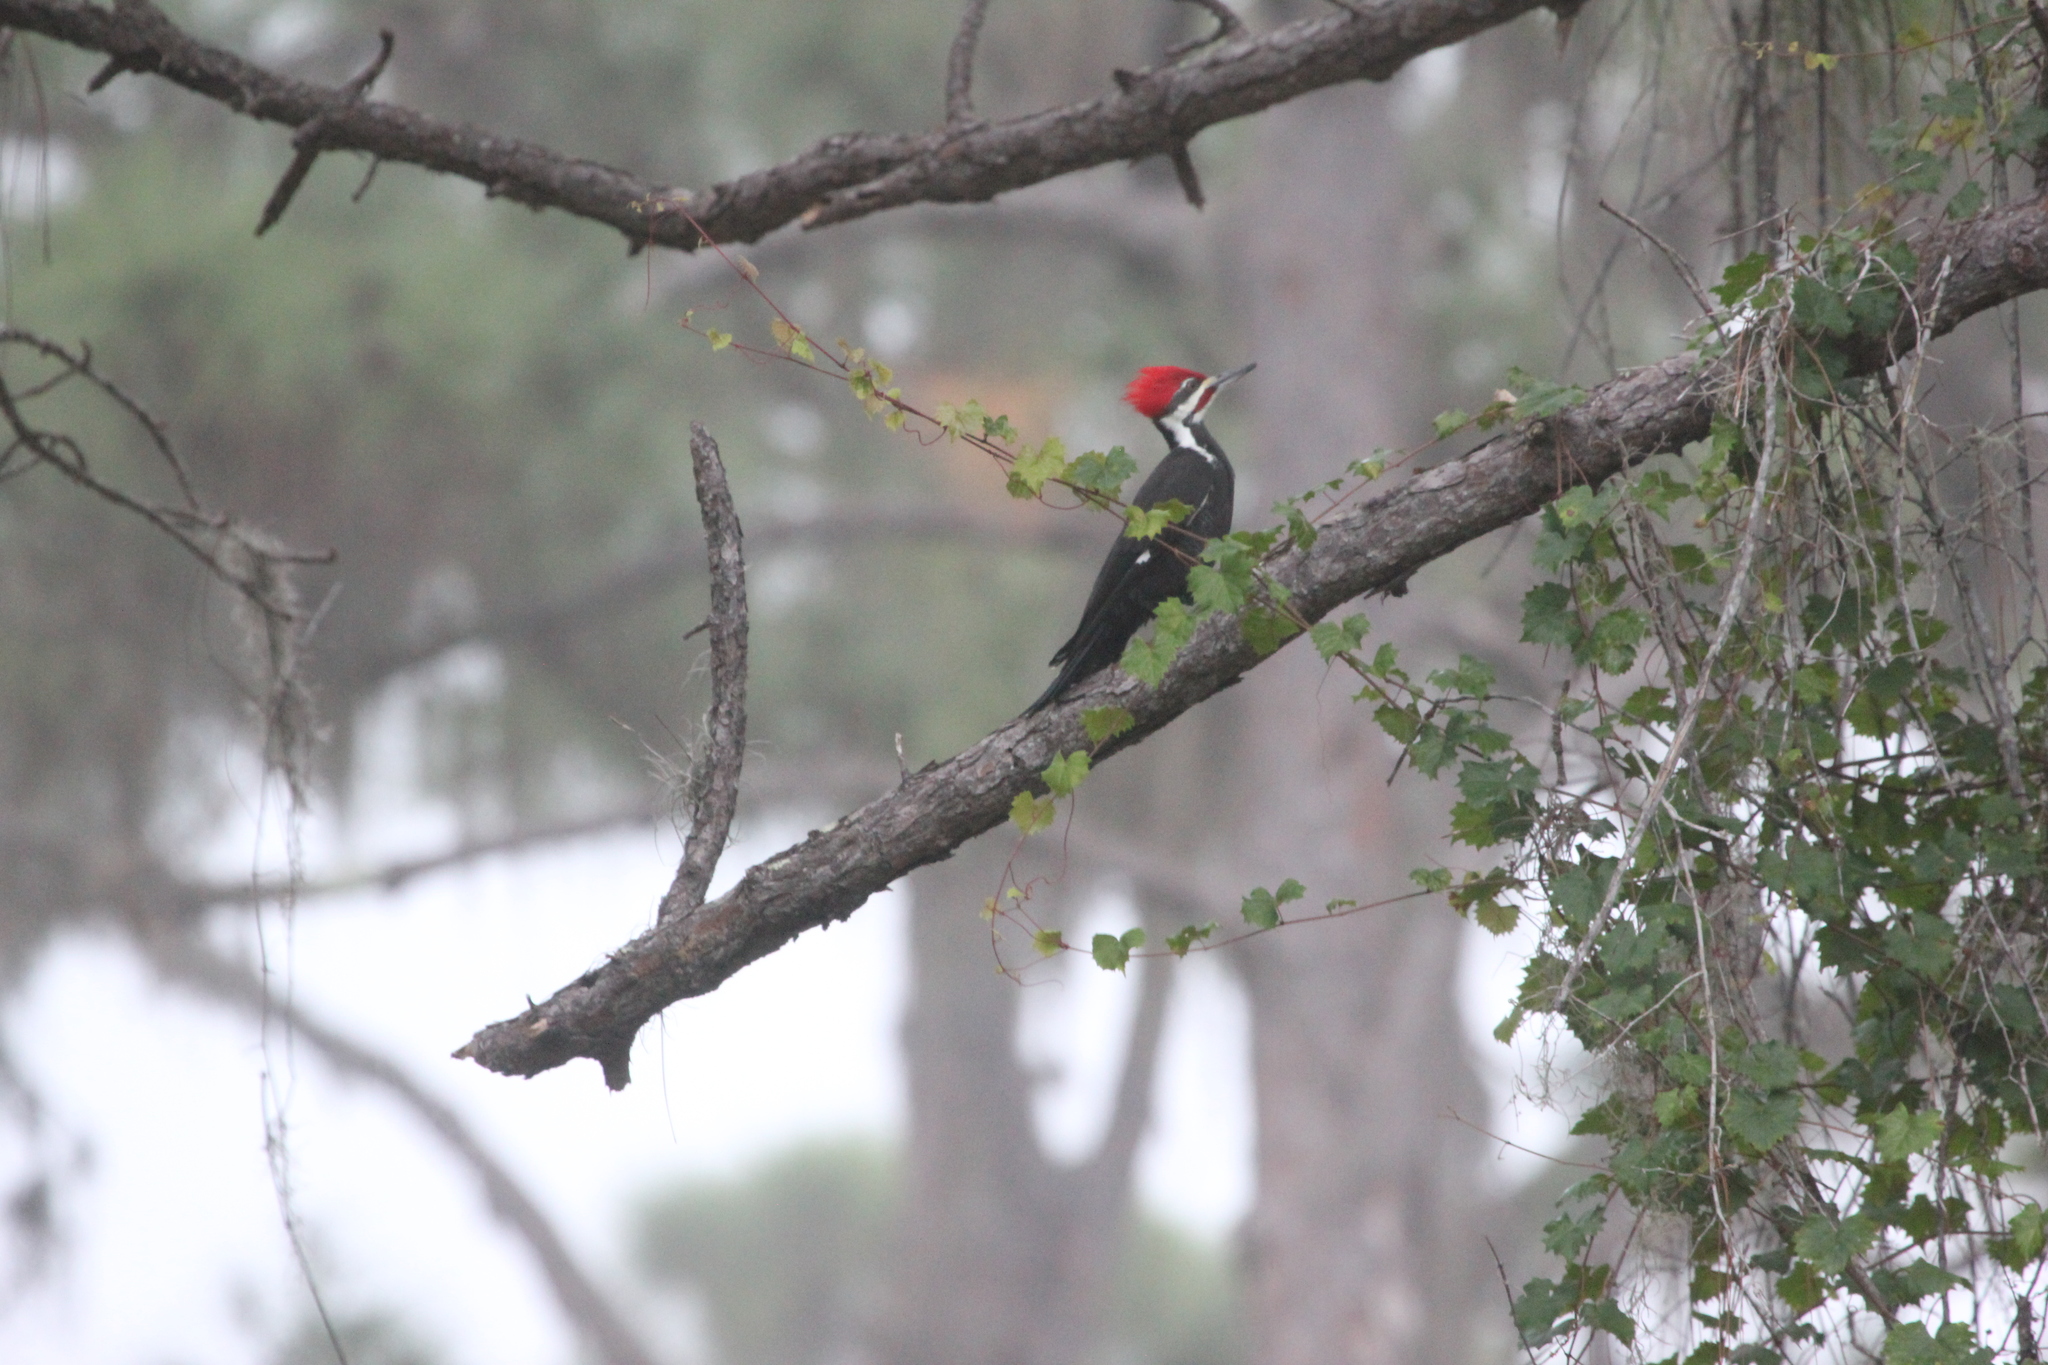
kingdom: Animalia
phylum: Chordata
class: Aves
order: Piciformes
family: Picidae
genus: Dryocopus
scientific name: Dryocopus pileatus
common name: Pileated woodpecker
